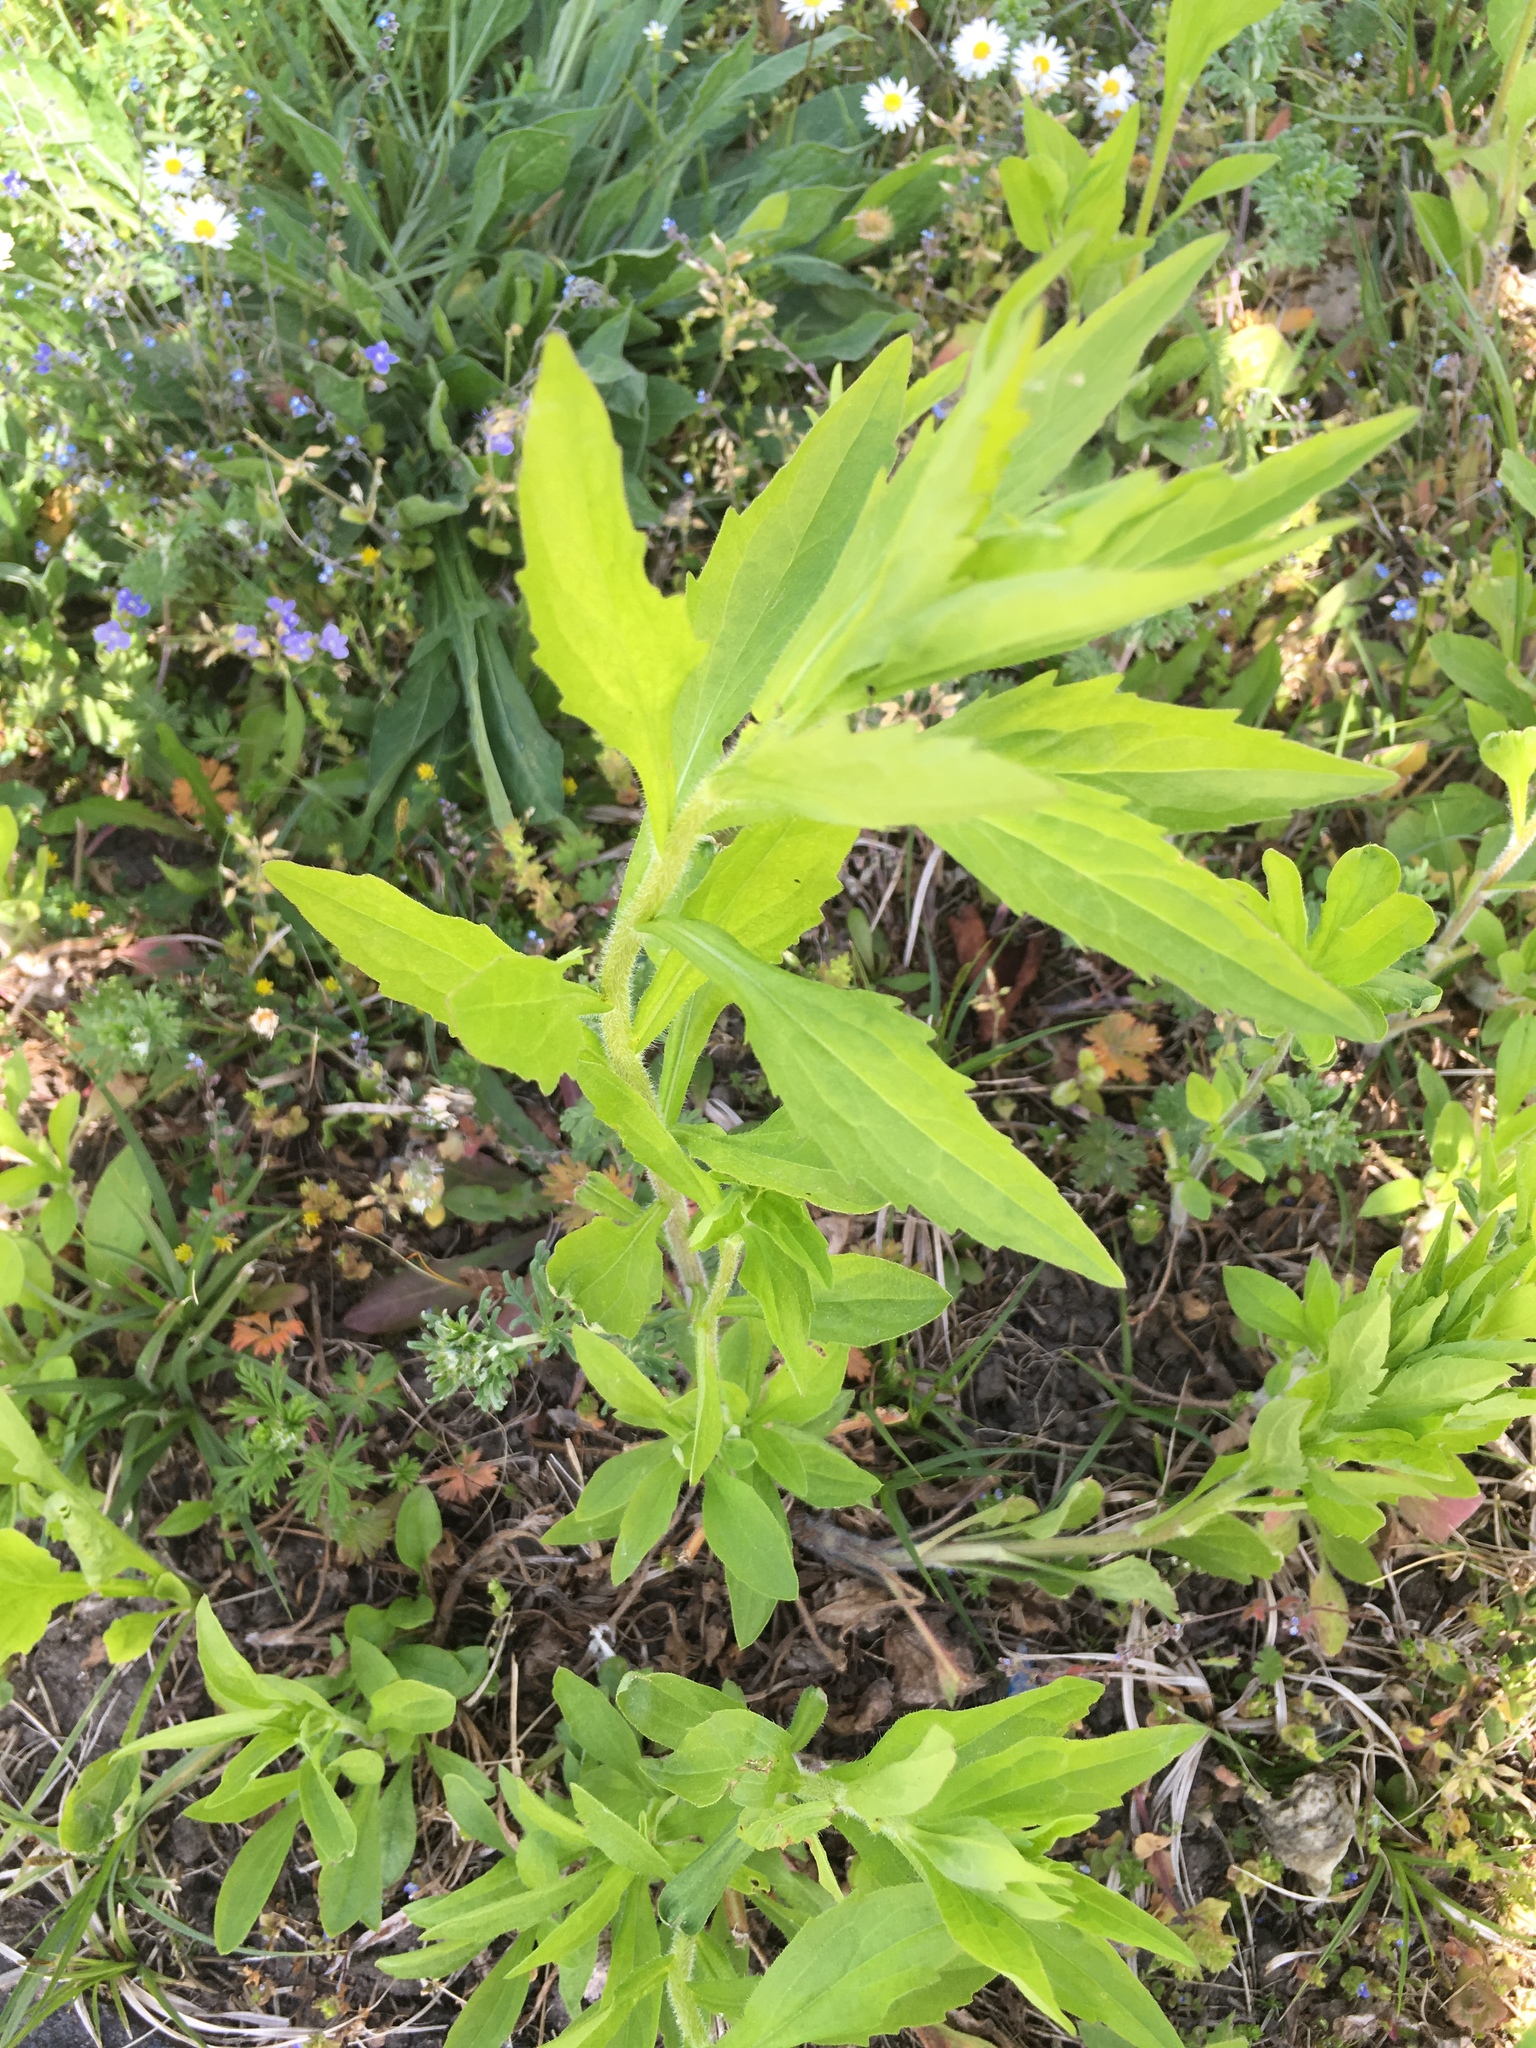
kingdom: Plantae
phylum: Tracheophyta
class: Magnoliopsida
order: Asterales
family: Asteraceae
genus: Erigeron
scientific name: Erigeron annuus
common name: Tall fleabane
